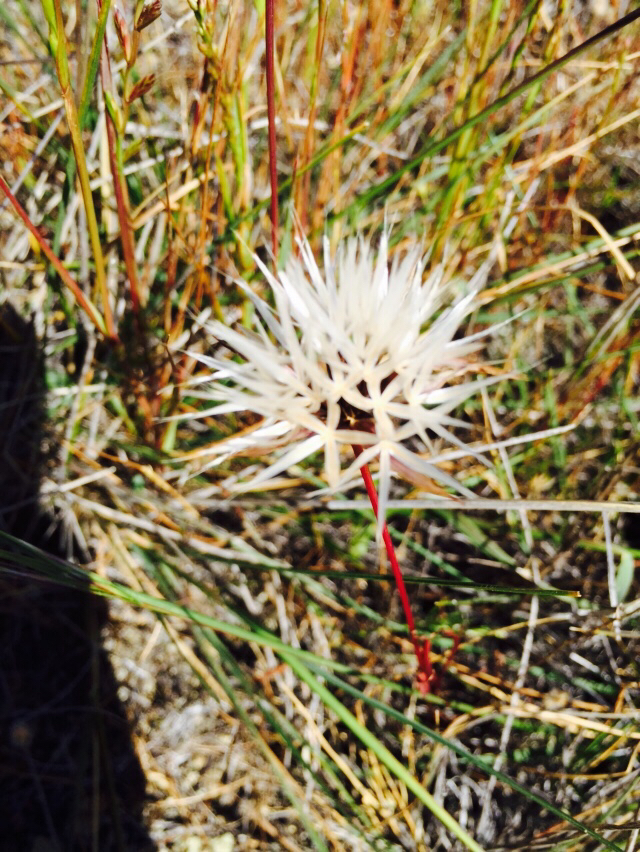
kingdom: Plantae
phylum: Tracheophyta
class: Magnoliopsida
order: Asterales
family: Asteraceae
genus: Microseris
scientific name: Microseris lindleyi
